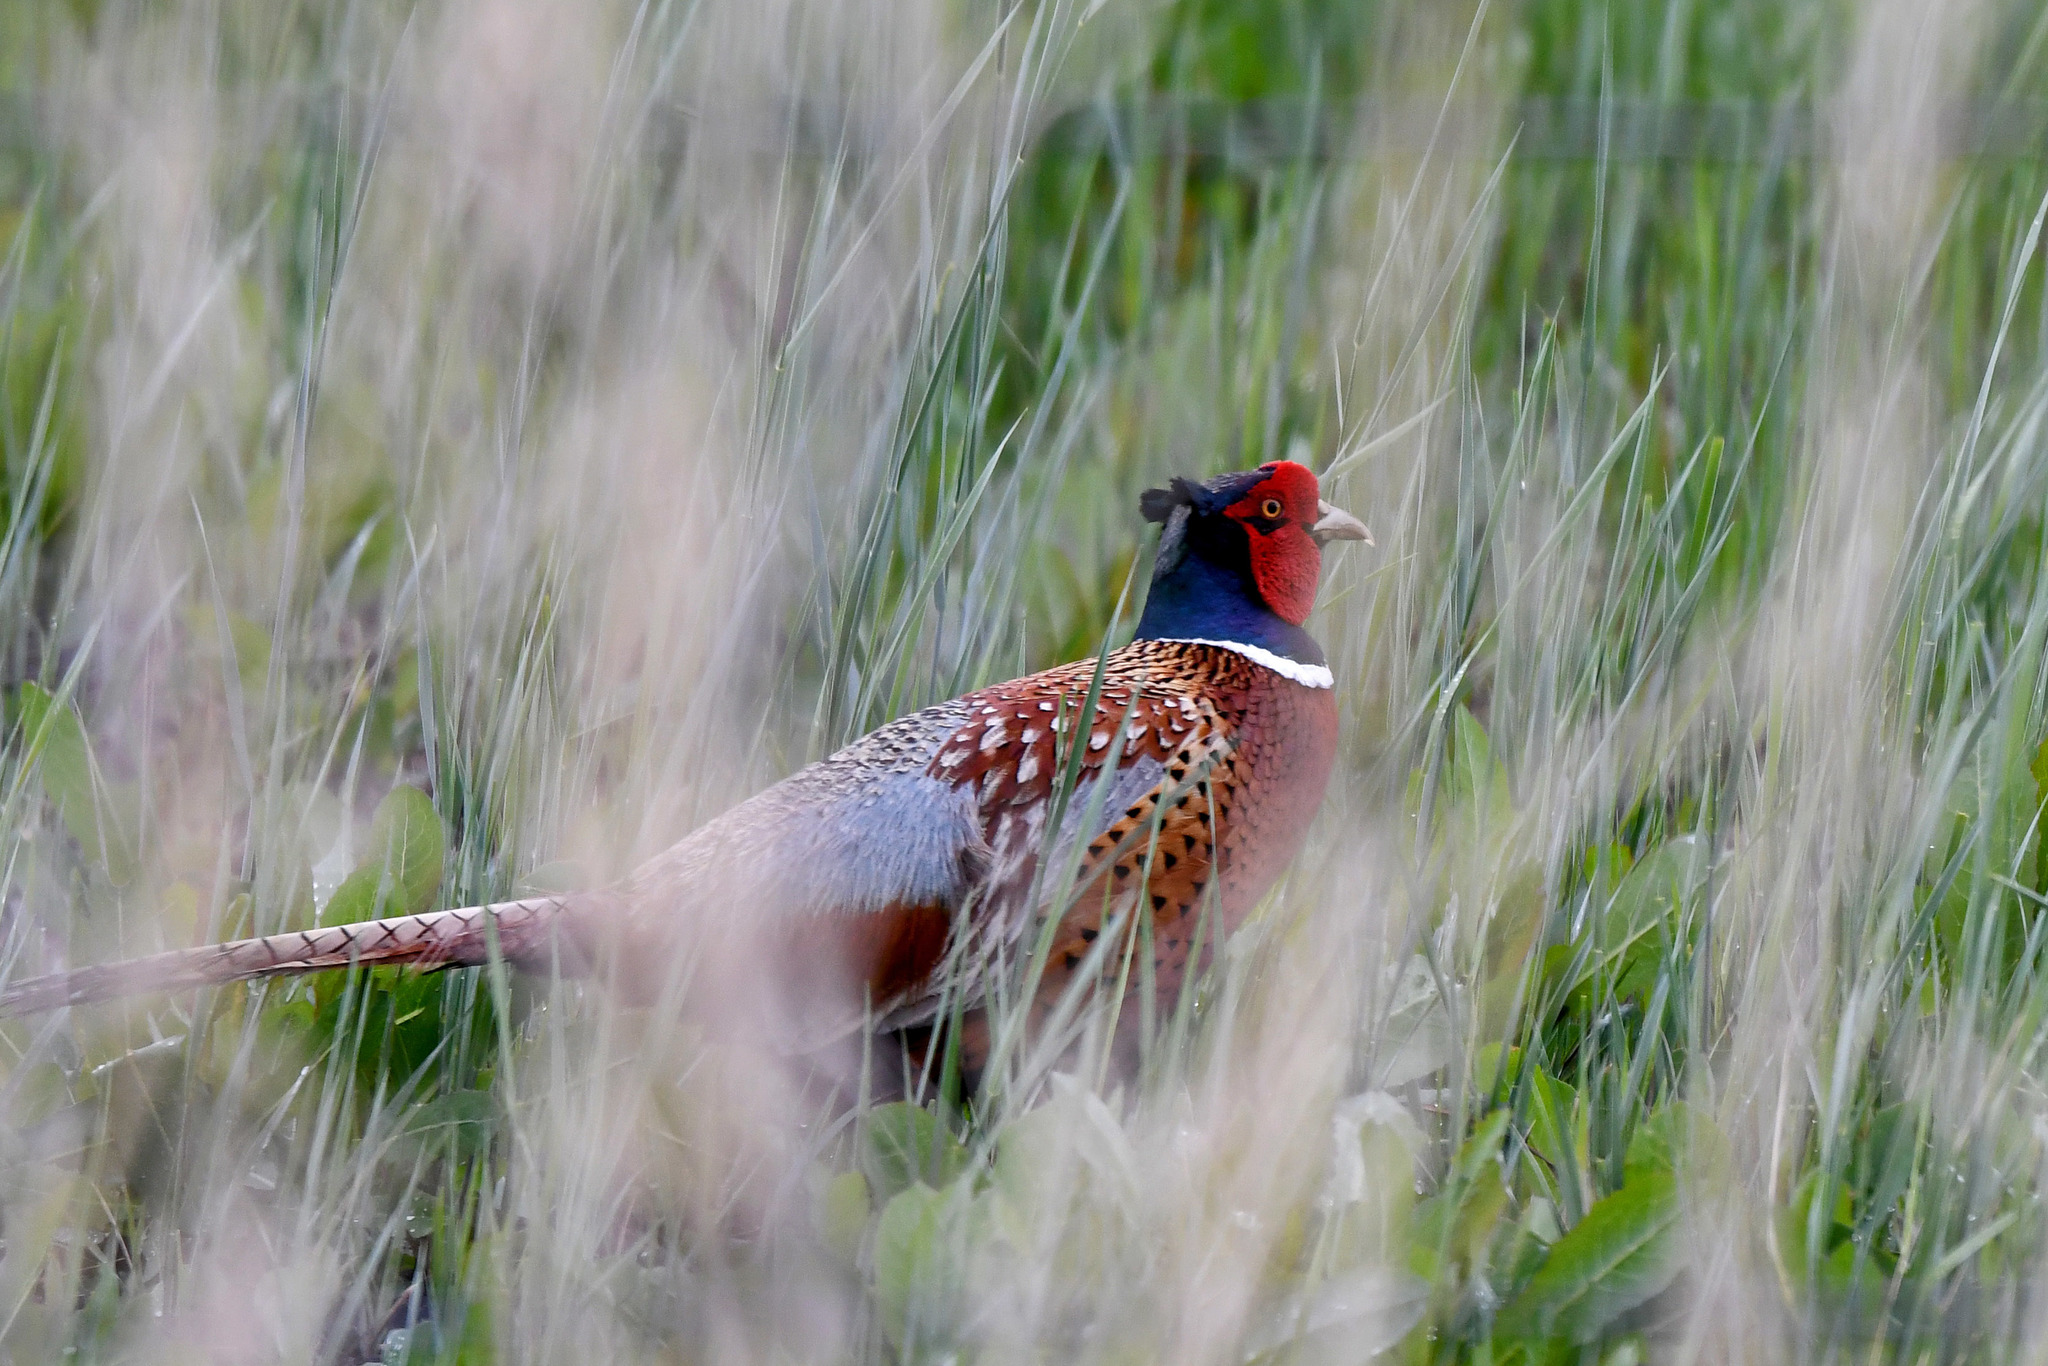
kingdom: Animalia
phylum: Chordata
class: Aves
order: Galliformes
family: Phasianidae
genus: Phasianus
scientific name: Phasianus colchicus
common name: Common pheasant
